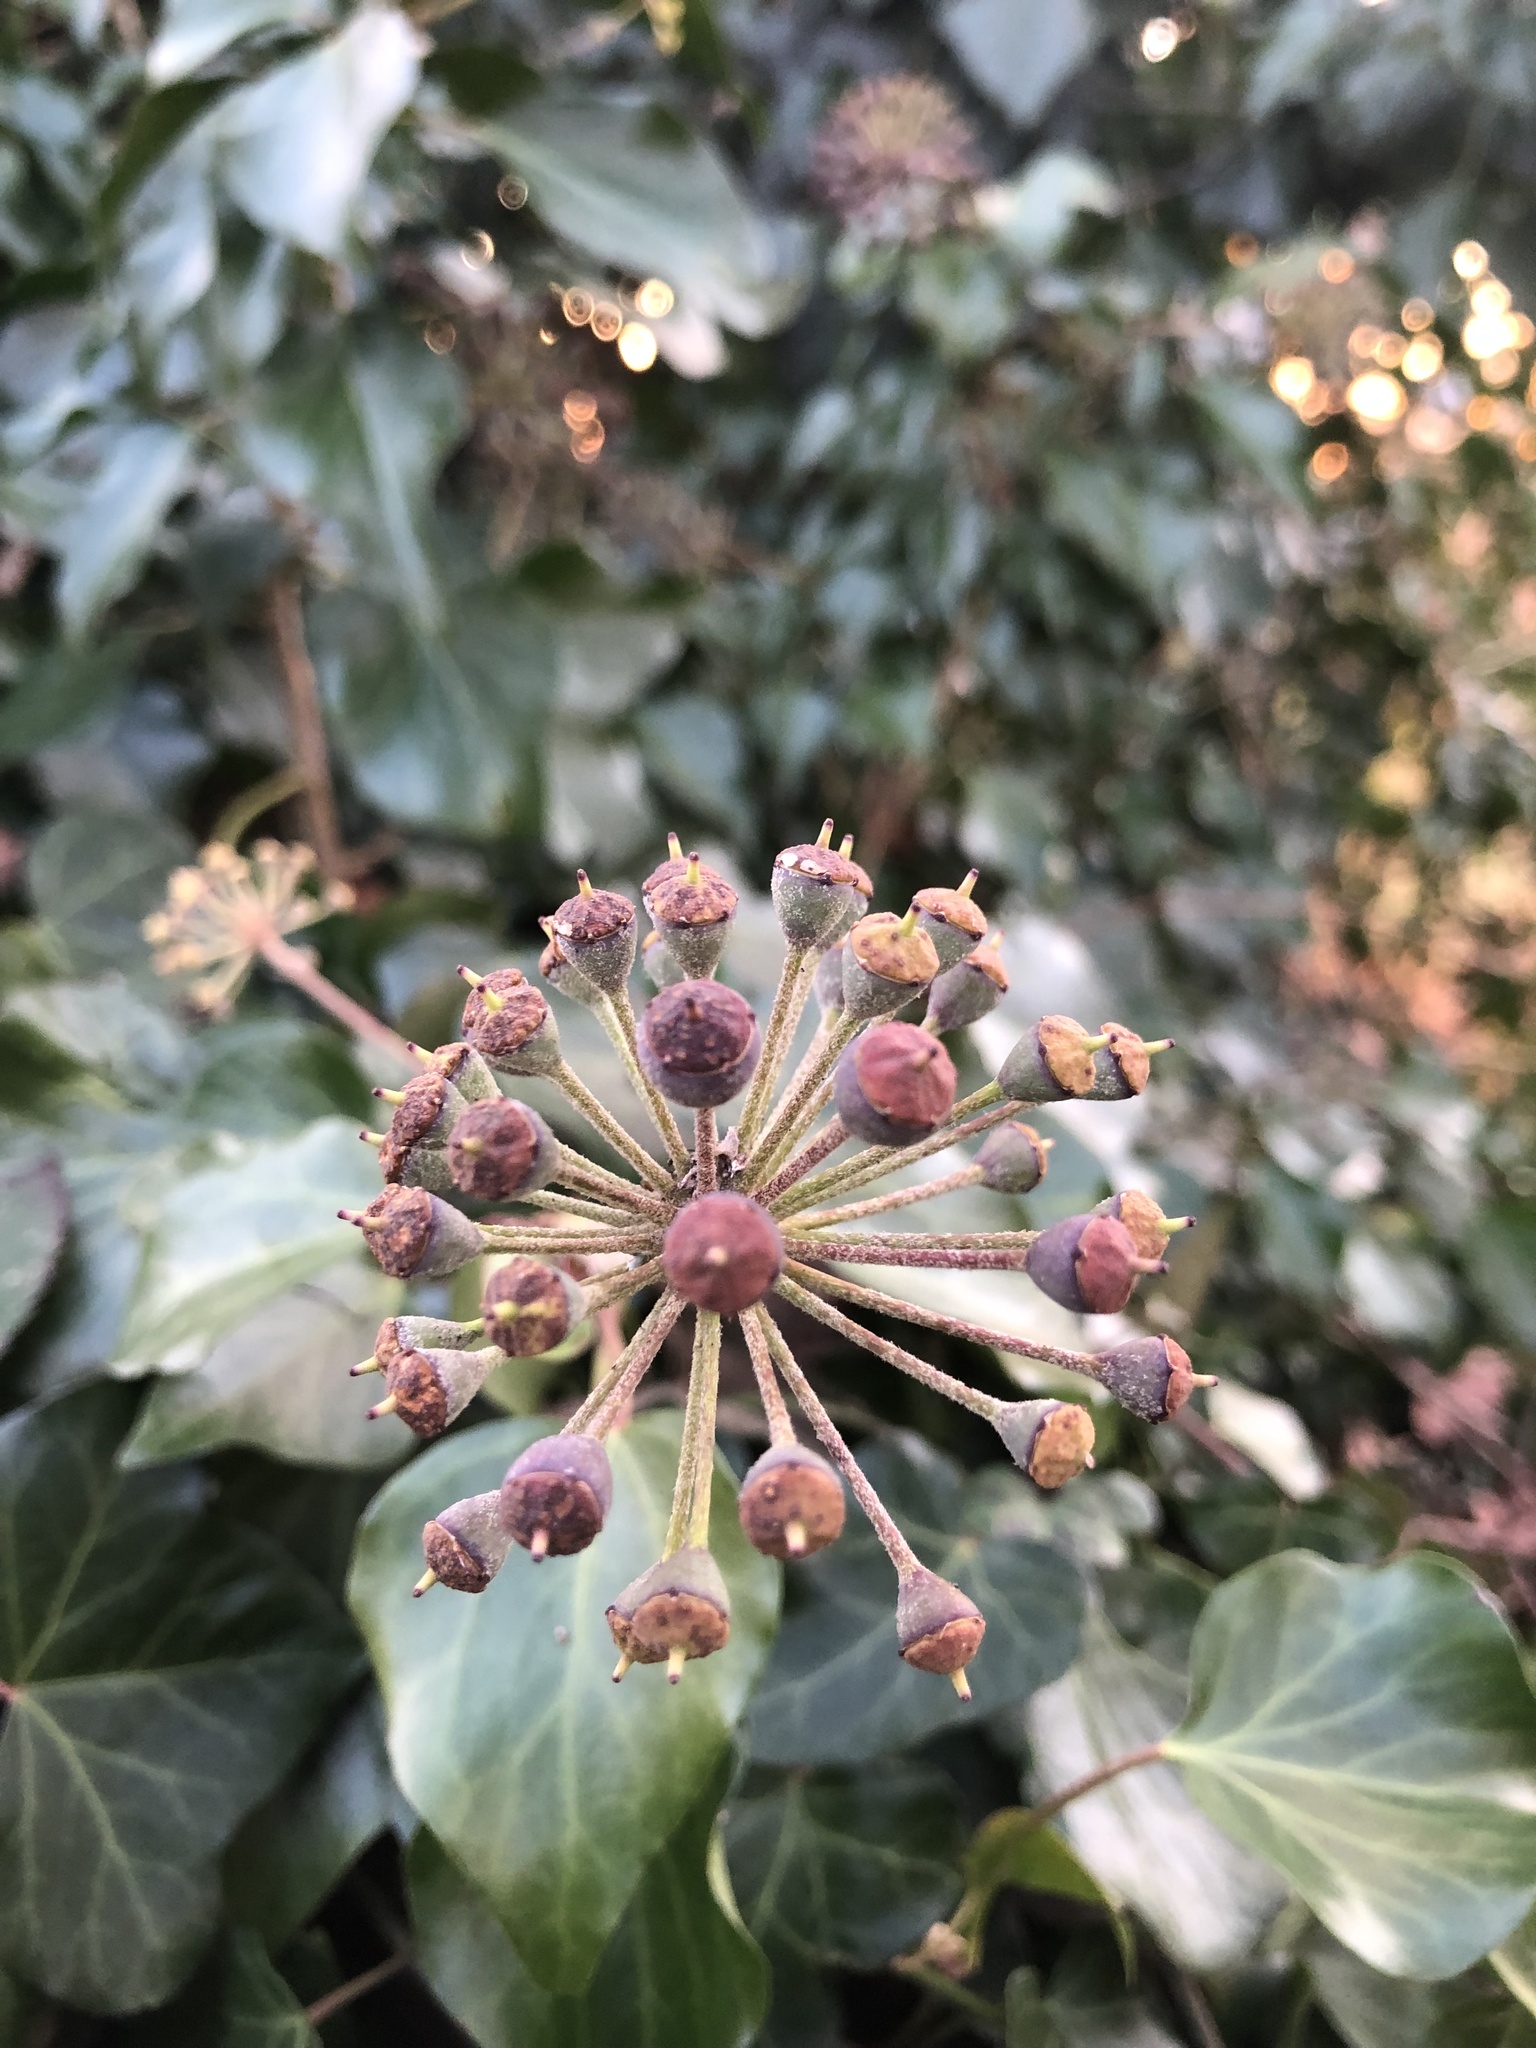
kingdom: Plantae
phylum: Tracheophyta
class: Magnoliopsida
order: Apiales
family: Araliaceae
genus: Hedera
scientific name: Hedera helix
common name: Ivy
